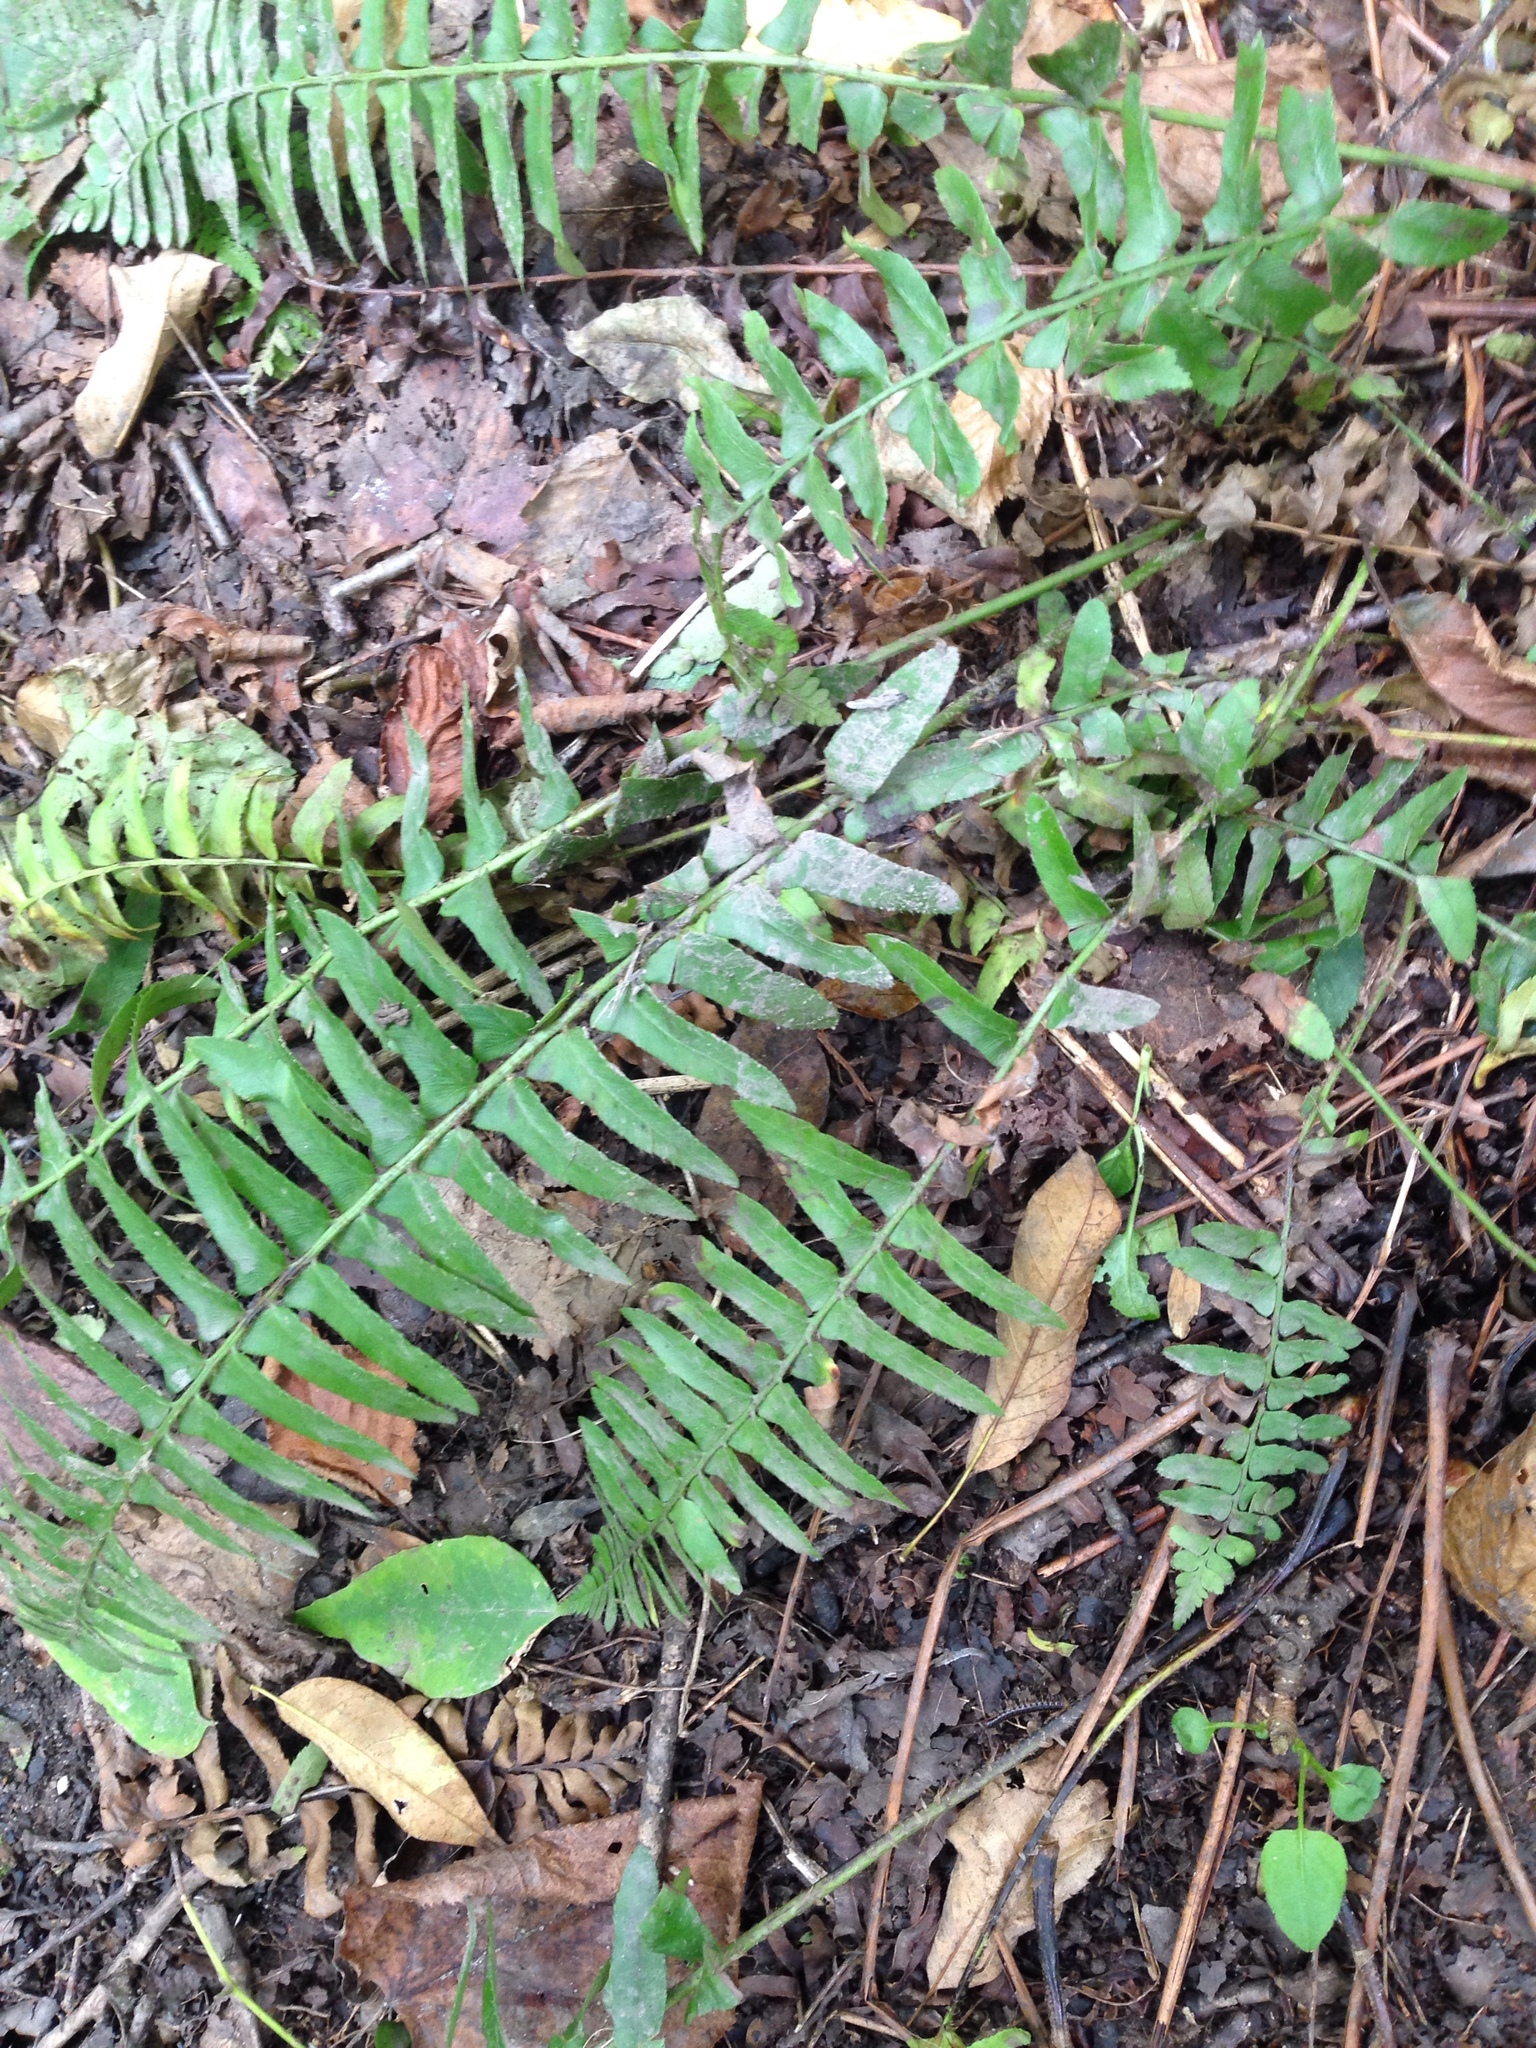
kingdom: Plantae
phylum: Tracheophyta
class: Polypodiopsida
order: Polypodiales
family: Dryopteridaceae
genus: Polystichum
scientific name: Polystichum acrostichoides
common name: Christmas fern
